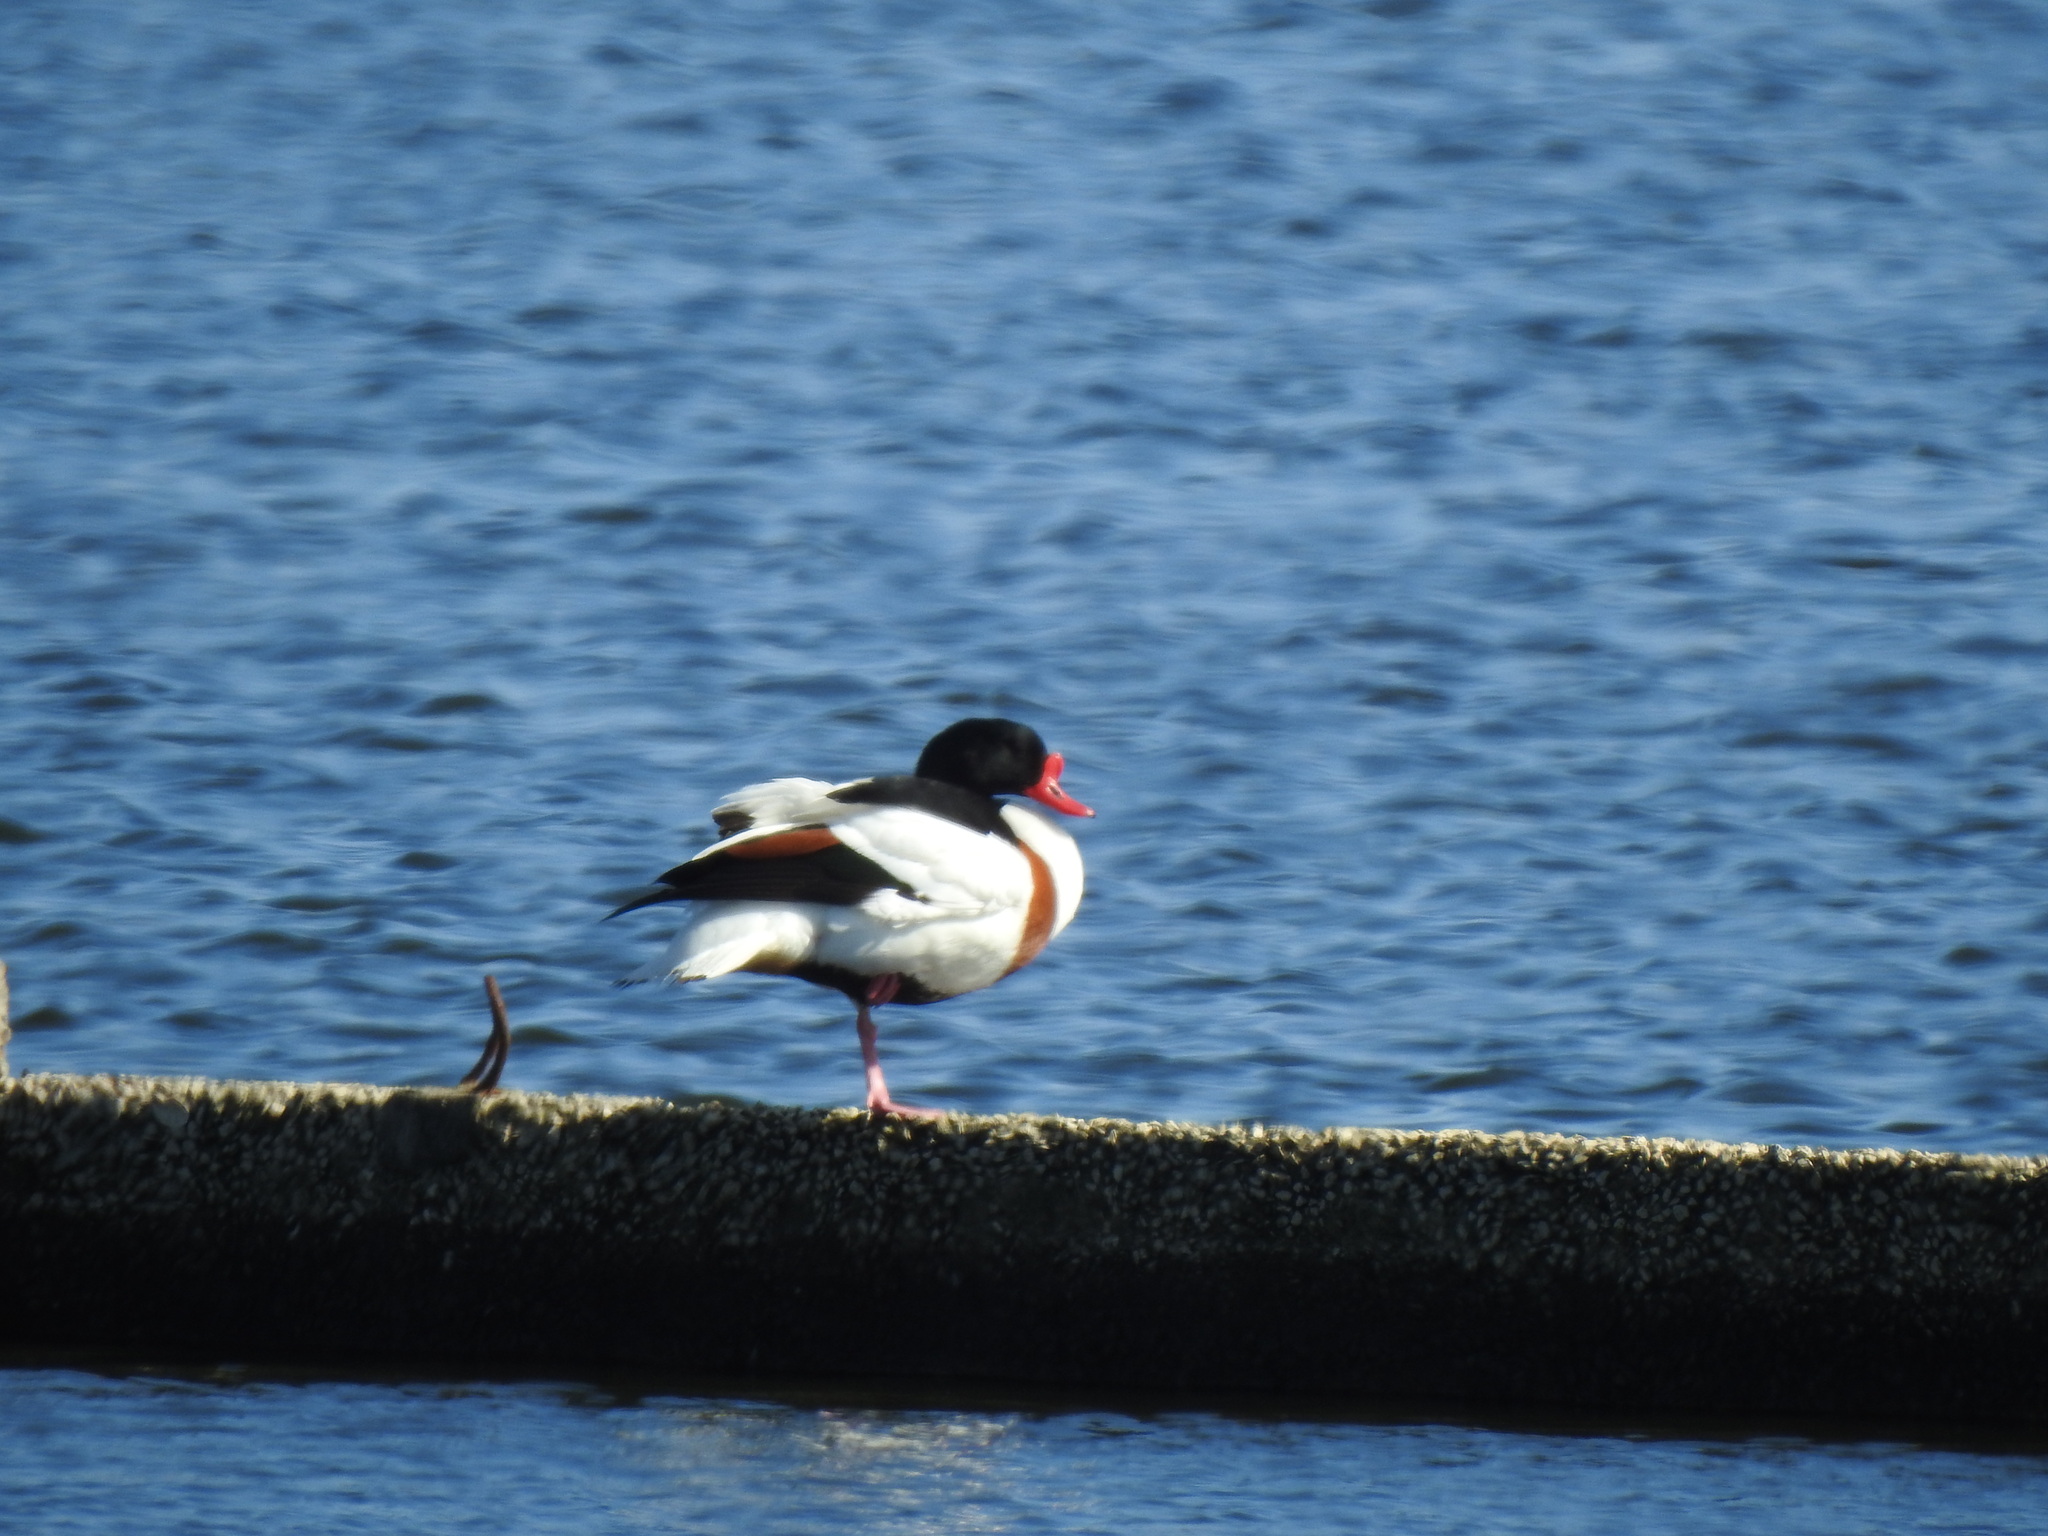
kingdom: Animalia
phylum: Chordata
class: Aves
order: Anseriformes
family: Anatidae
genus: Tadorna
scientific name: Tadorna tadorna
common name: Common shelduck
